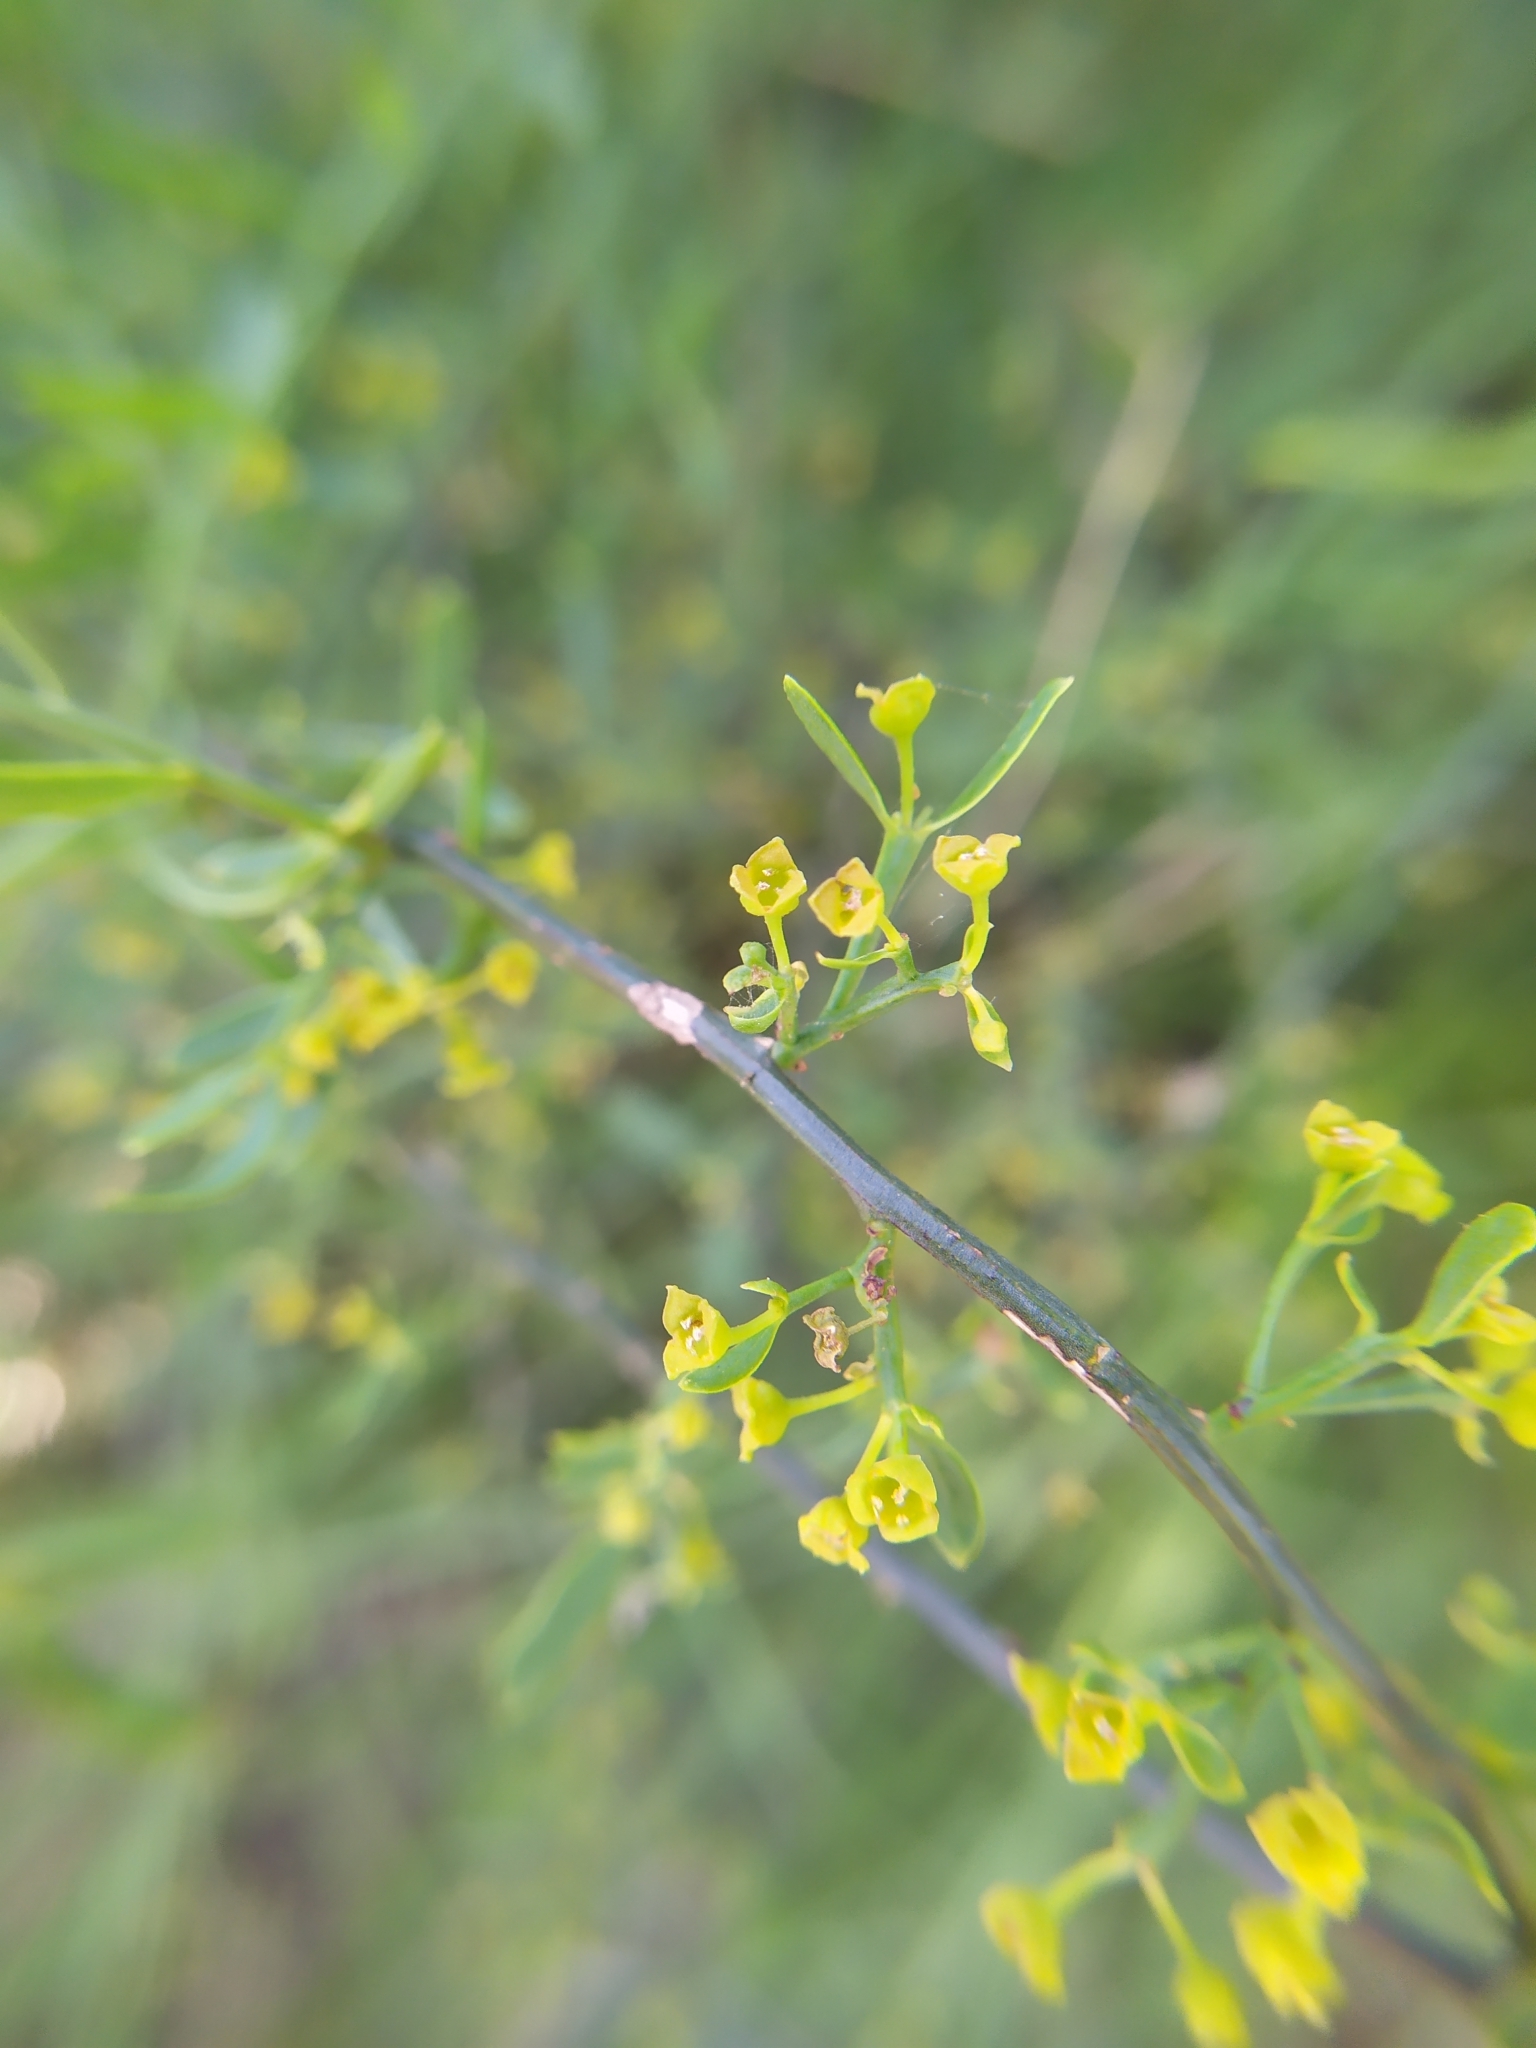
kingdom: Plantae
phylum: Tracheophyta
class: Magnoliopsida
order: Santalales
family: Santalaceae
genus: Osyris
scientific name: Osyris alba
